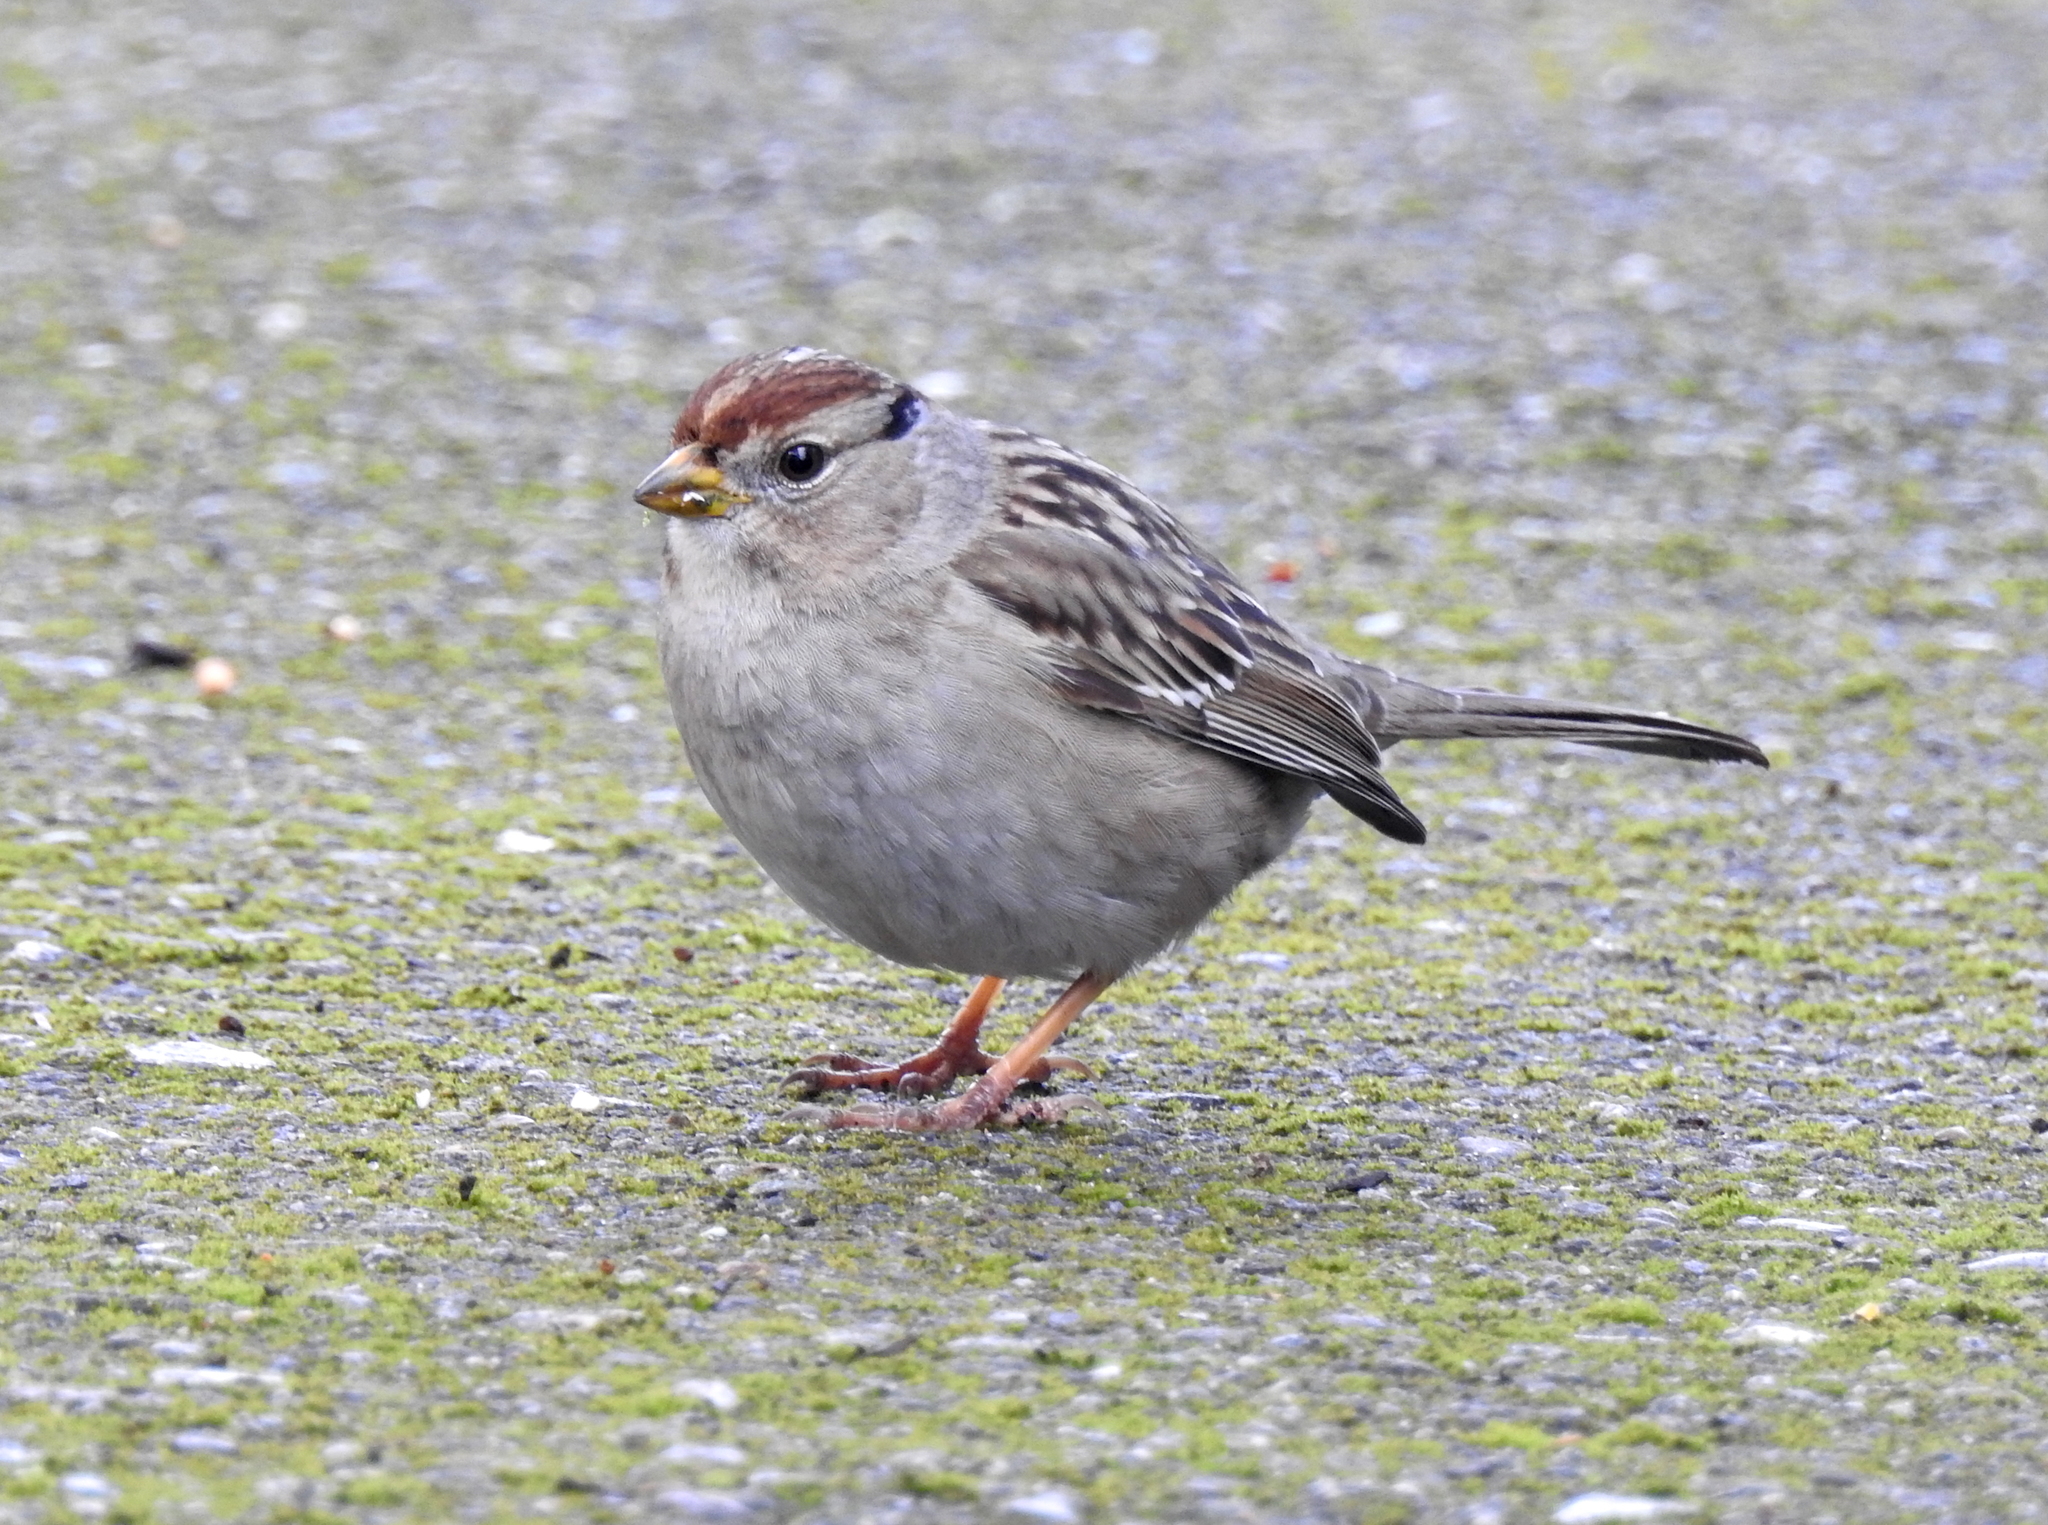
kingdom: Animalia
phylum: Chordata
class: Aves
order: Passeriformes
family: Passerellidae
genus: Zonotrichia
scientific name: Zonotrichia leucophrys
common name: White-crowned sparrow
